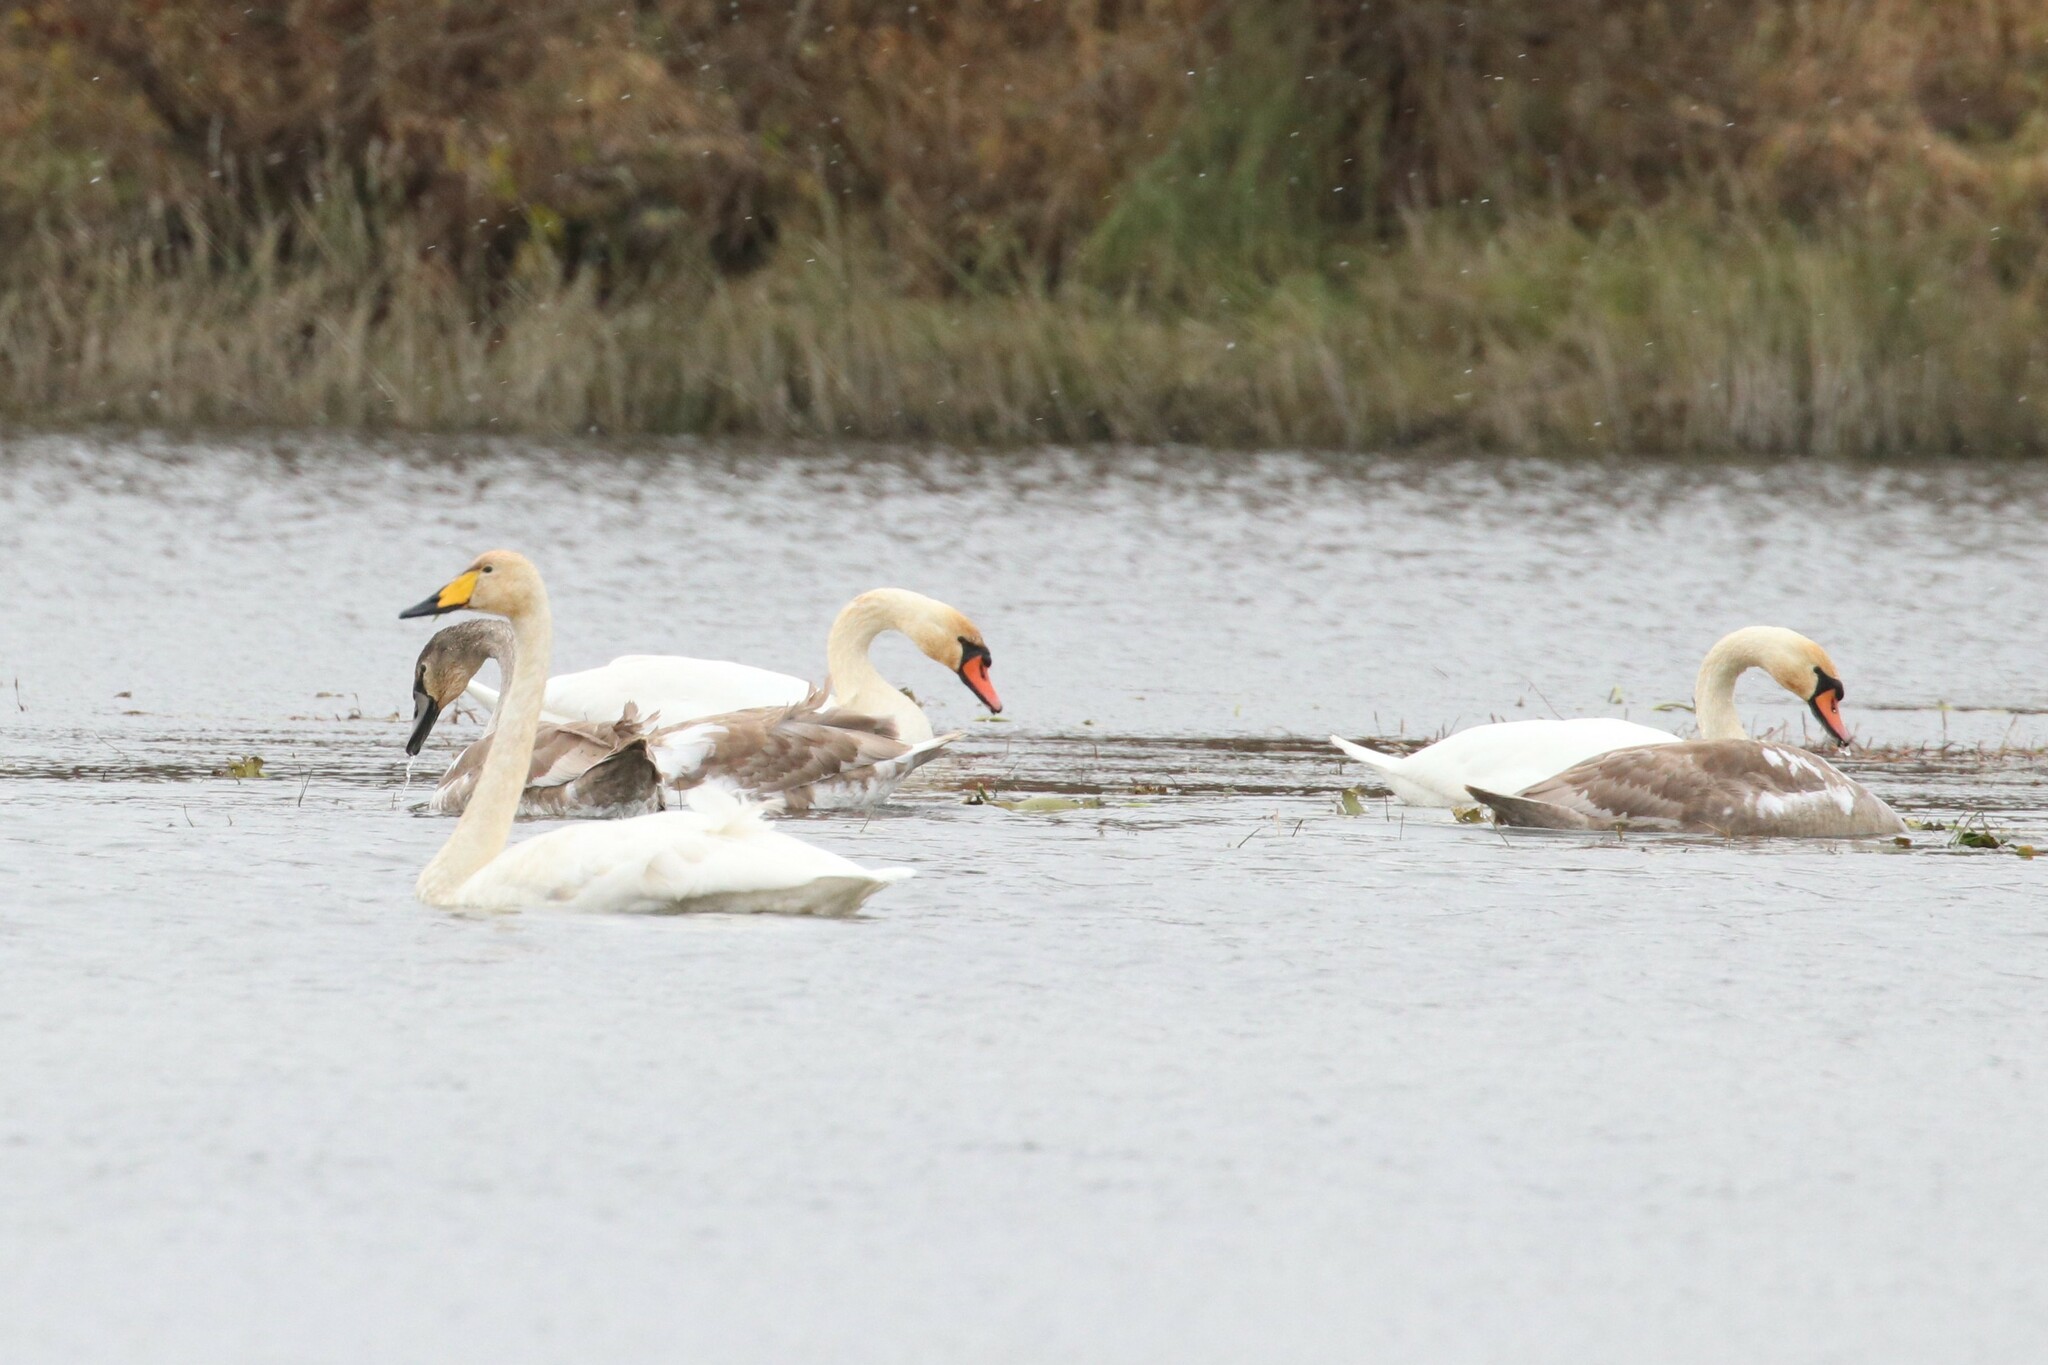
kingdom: Animalia
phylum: Chordata
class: Aves
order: Anseriformes
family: Anatidae
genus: Cygnus
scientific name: Cygnus cygnus
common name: Whooper swan
